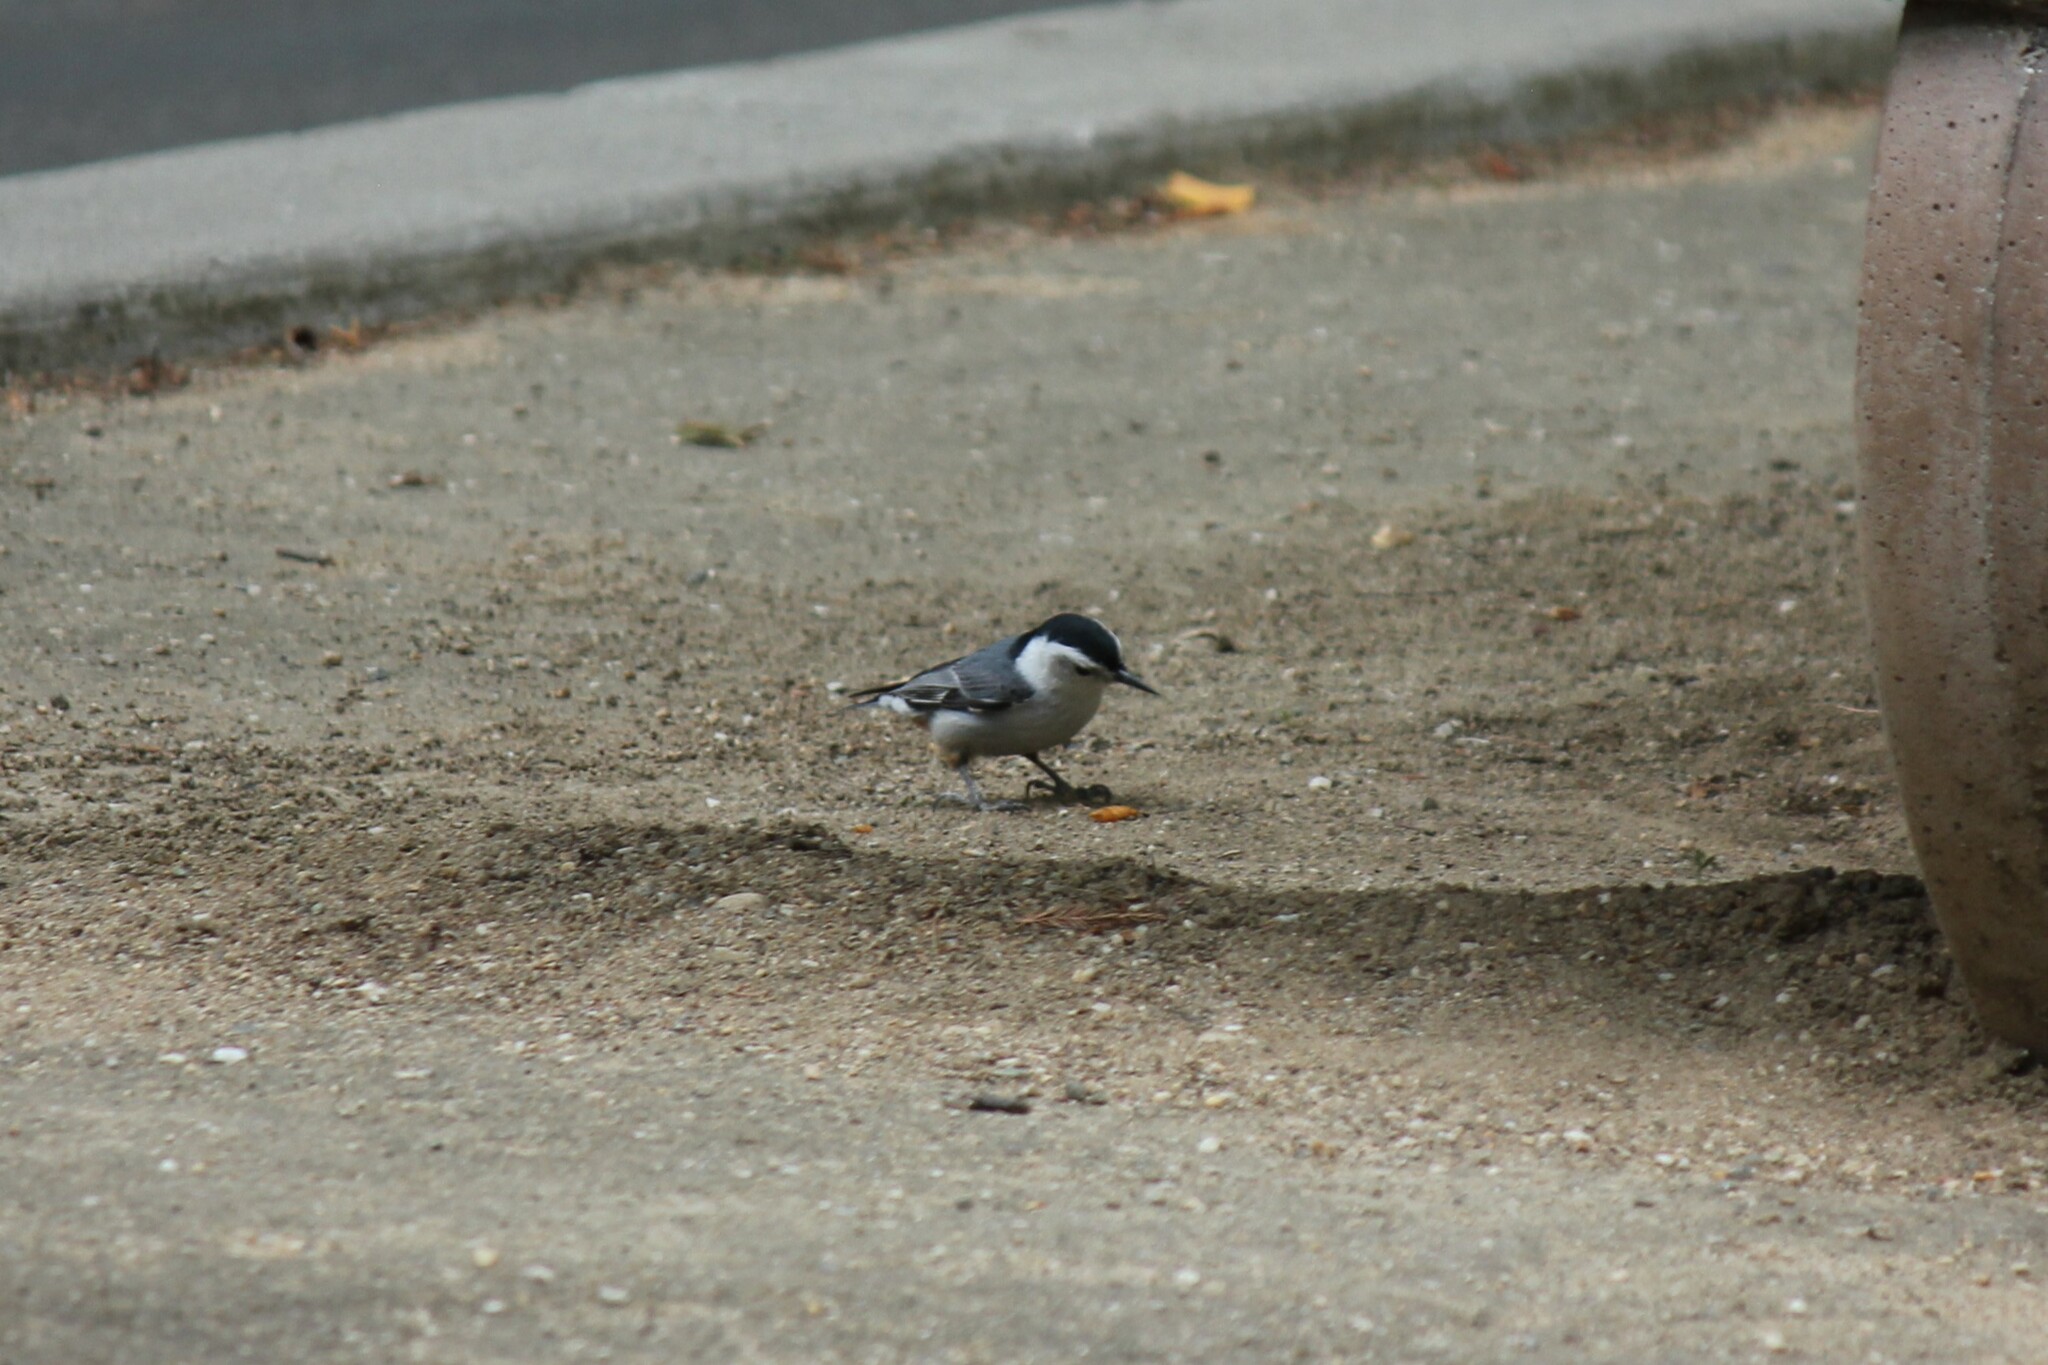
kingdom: Animalia
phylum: Chordata
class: Aves
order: Passeriformes
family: Sittidae
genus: Sitta
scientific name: Sitta carolinensis
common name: White-breasted nuthatch
